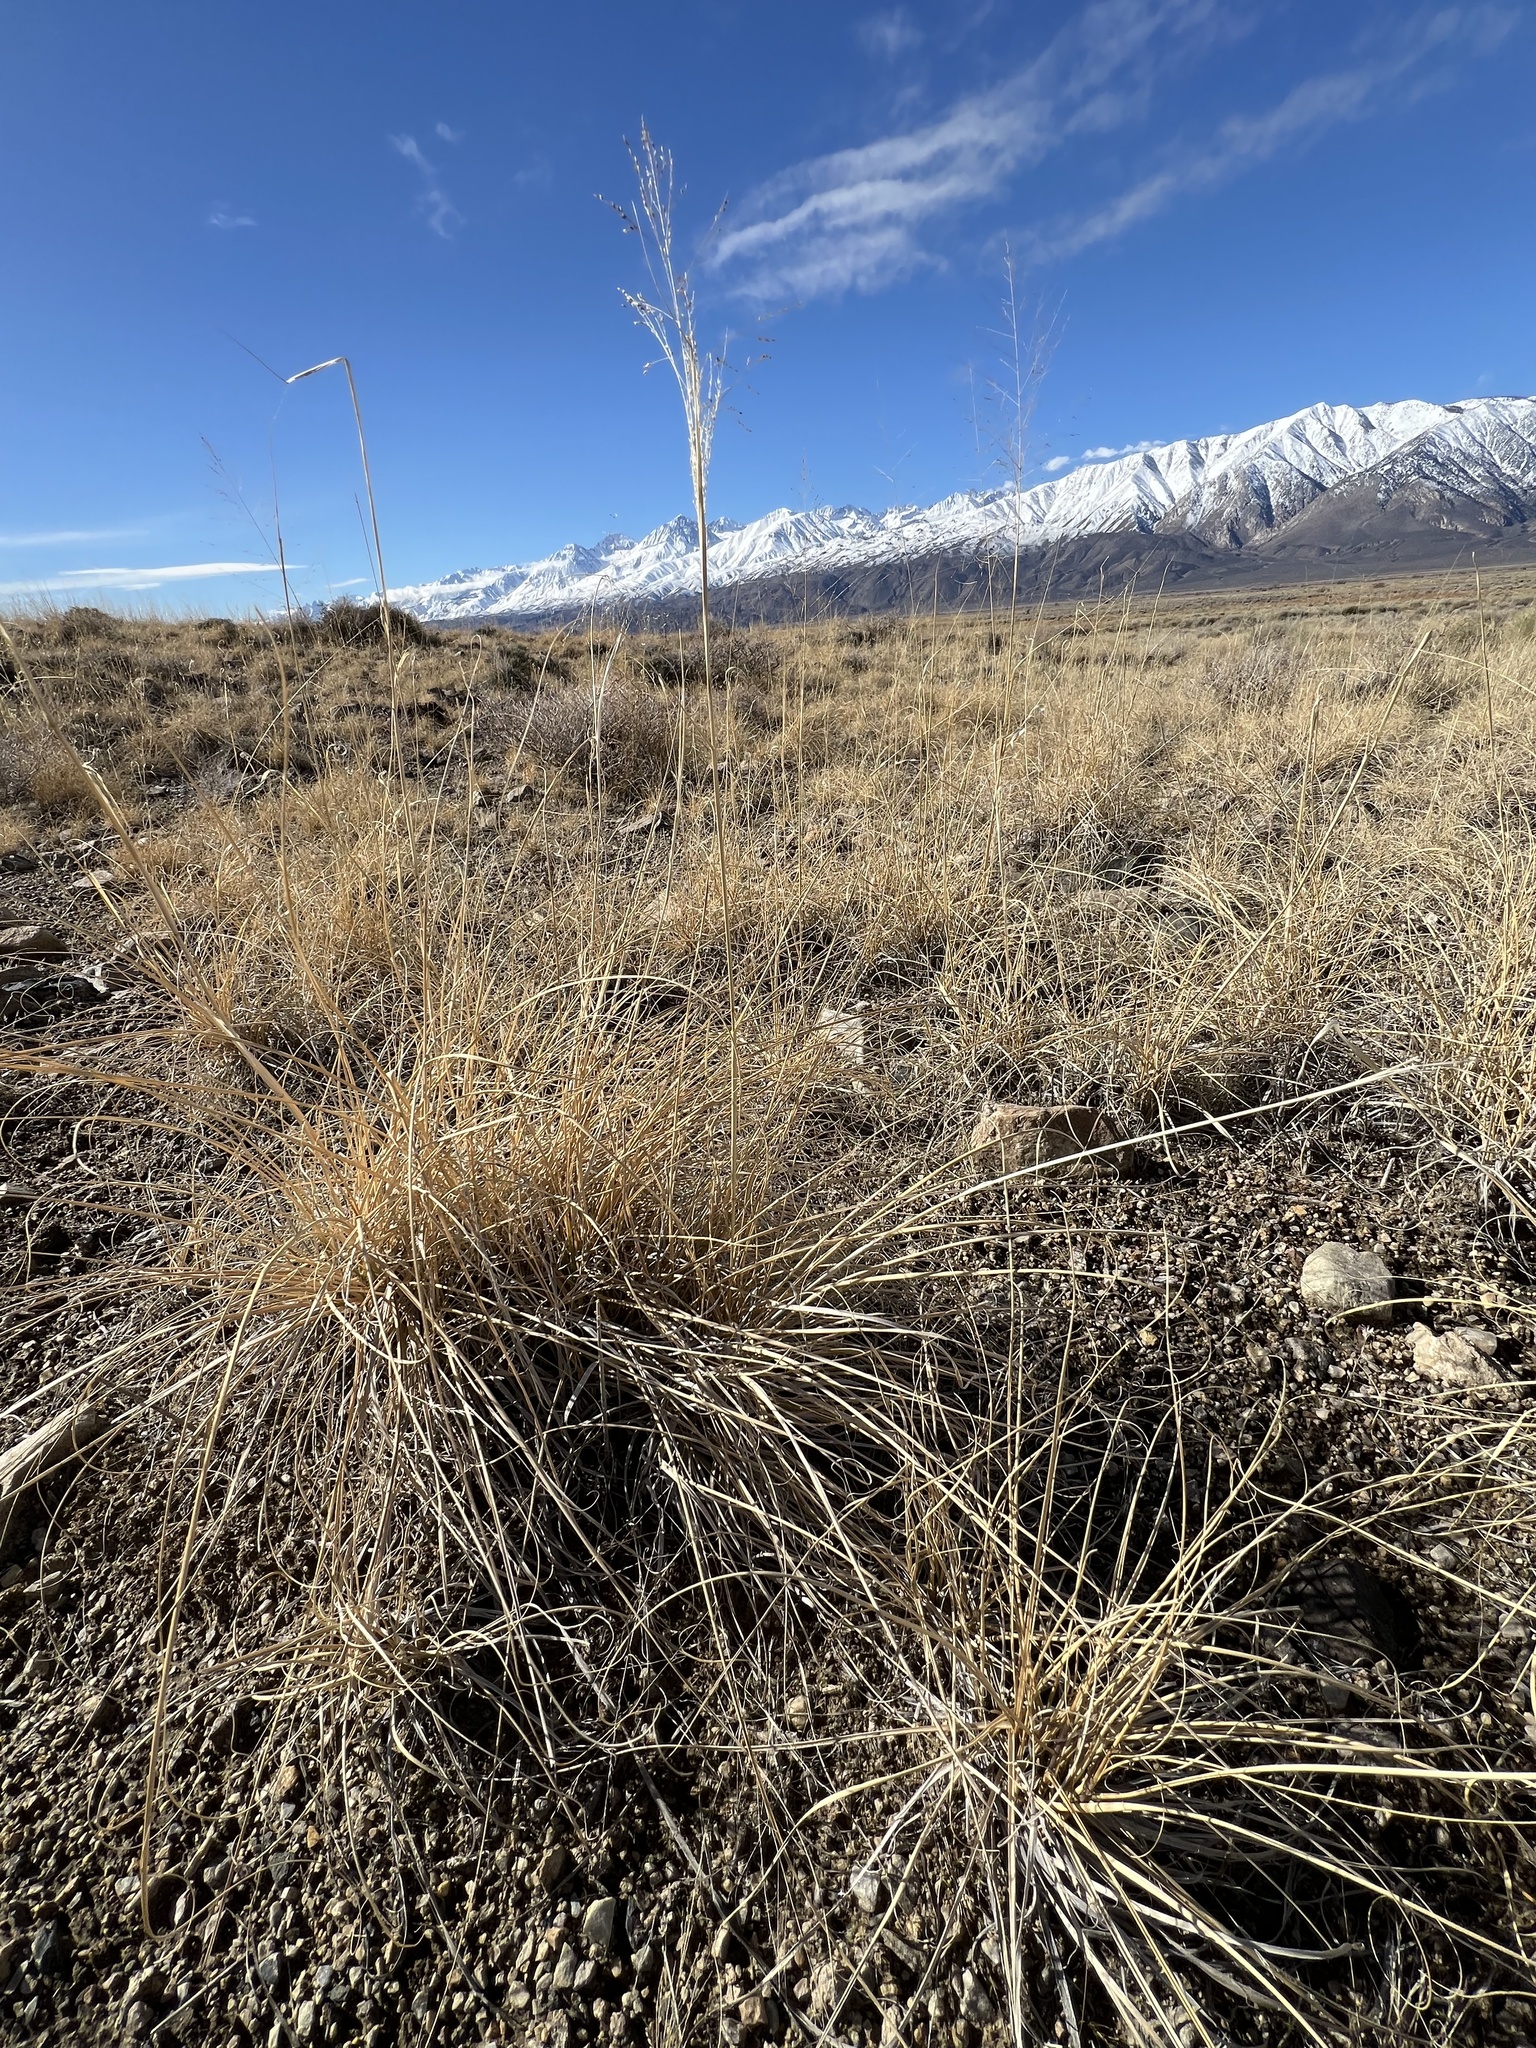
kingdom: Plantae
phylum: Tracheophyta
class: Liliopsida
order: Poales
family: Poaceae
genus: Sporobolus
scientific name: Sporobolus airoides
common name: Alkali sacaton
